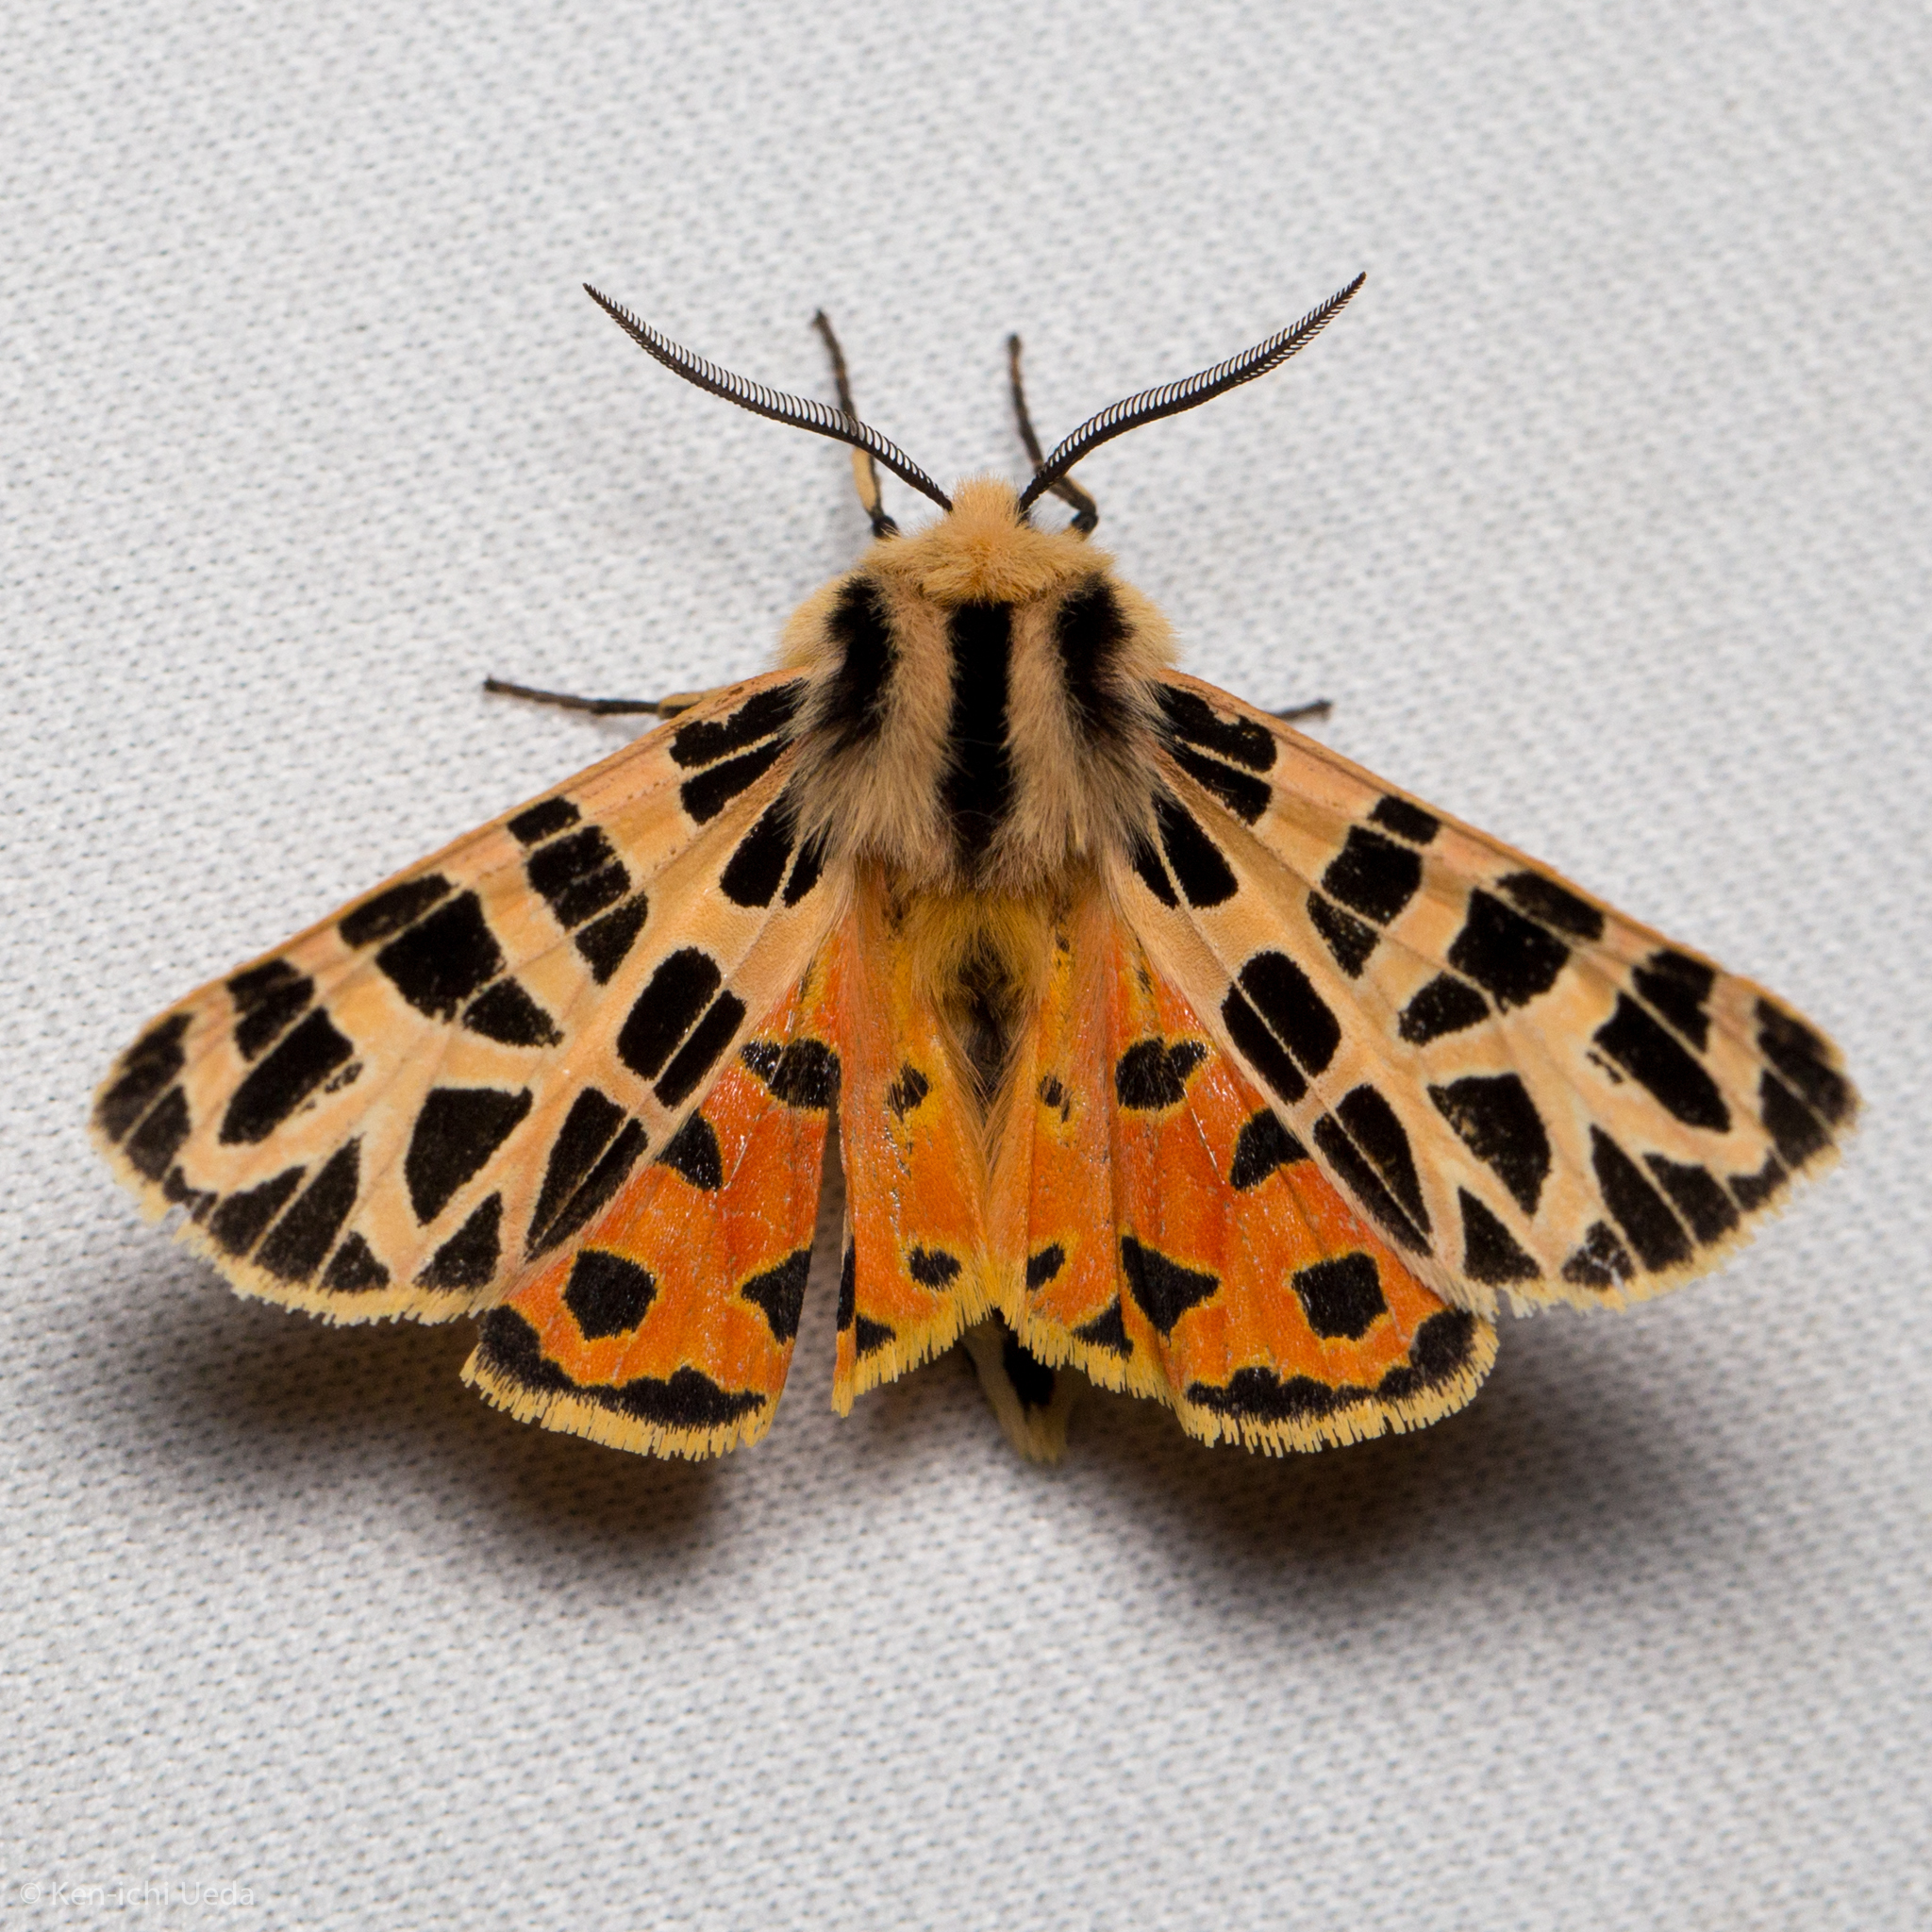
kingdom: Animalia
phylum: Arthropoda
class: Insecta
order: Lepidoptera
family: Erebidae
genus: Apantesis
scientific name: Apantesis
